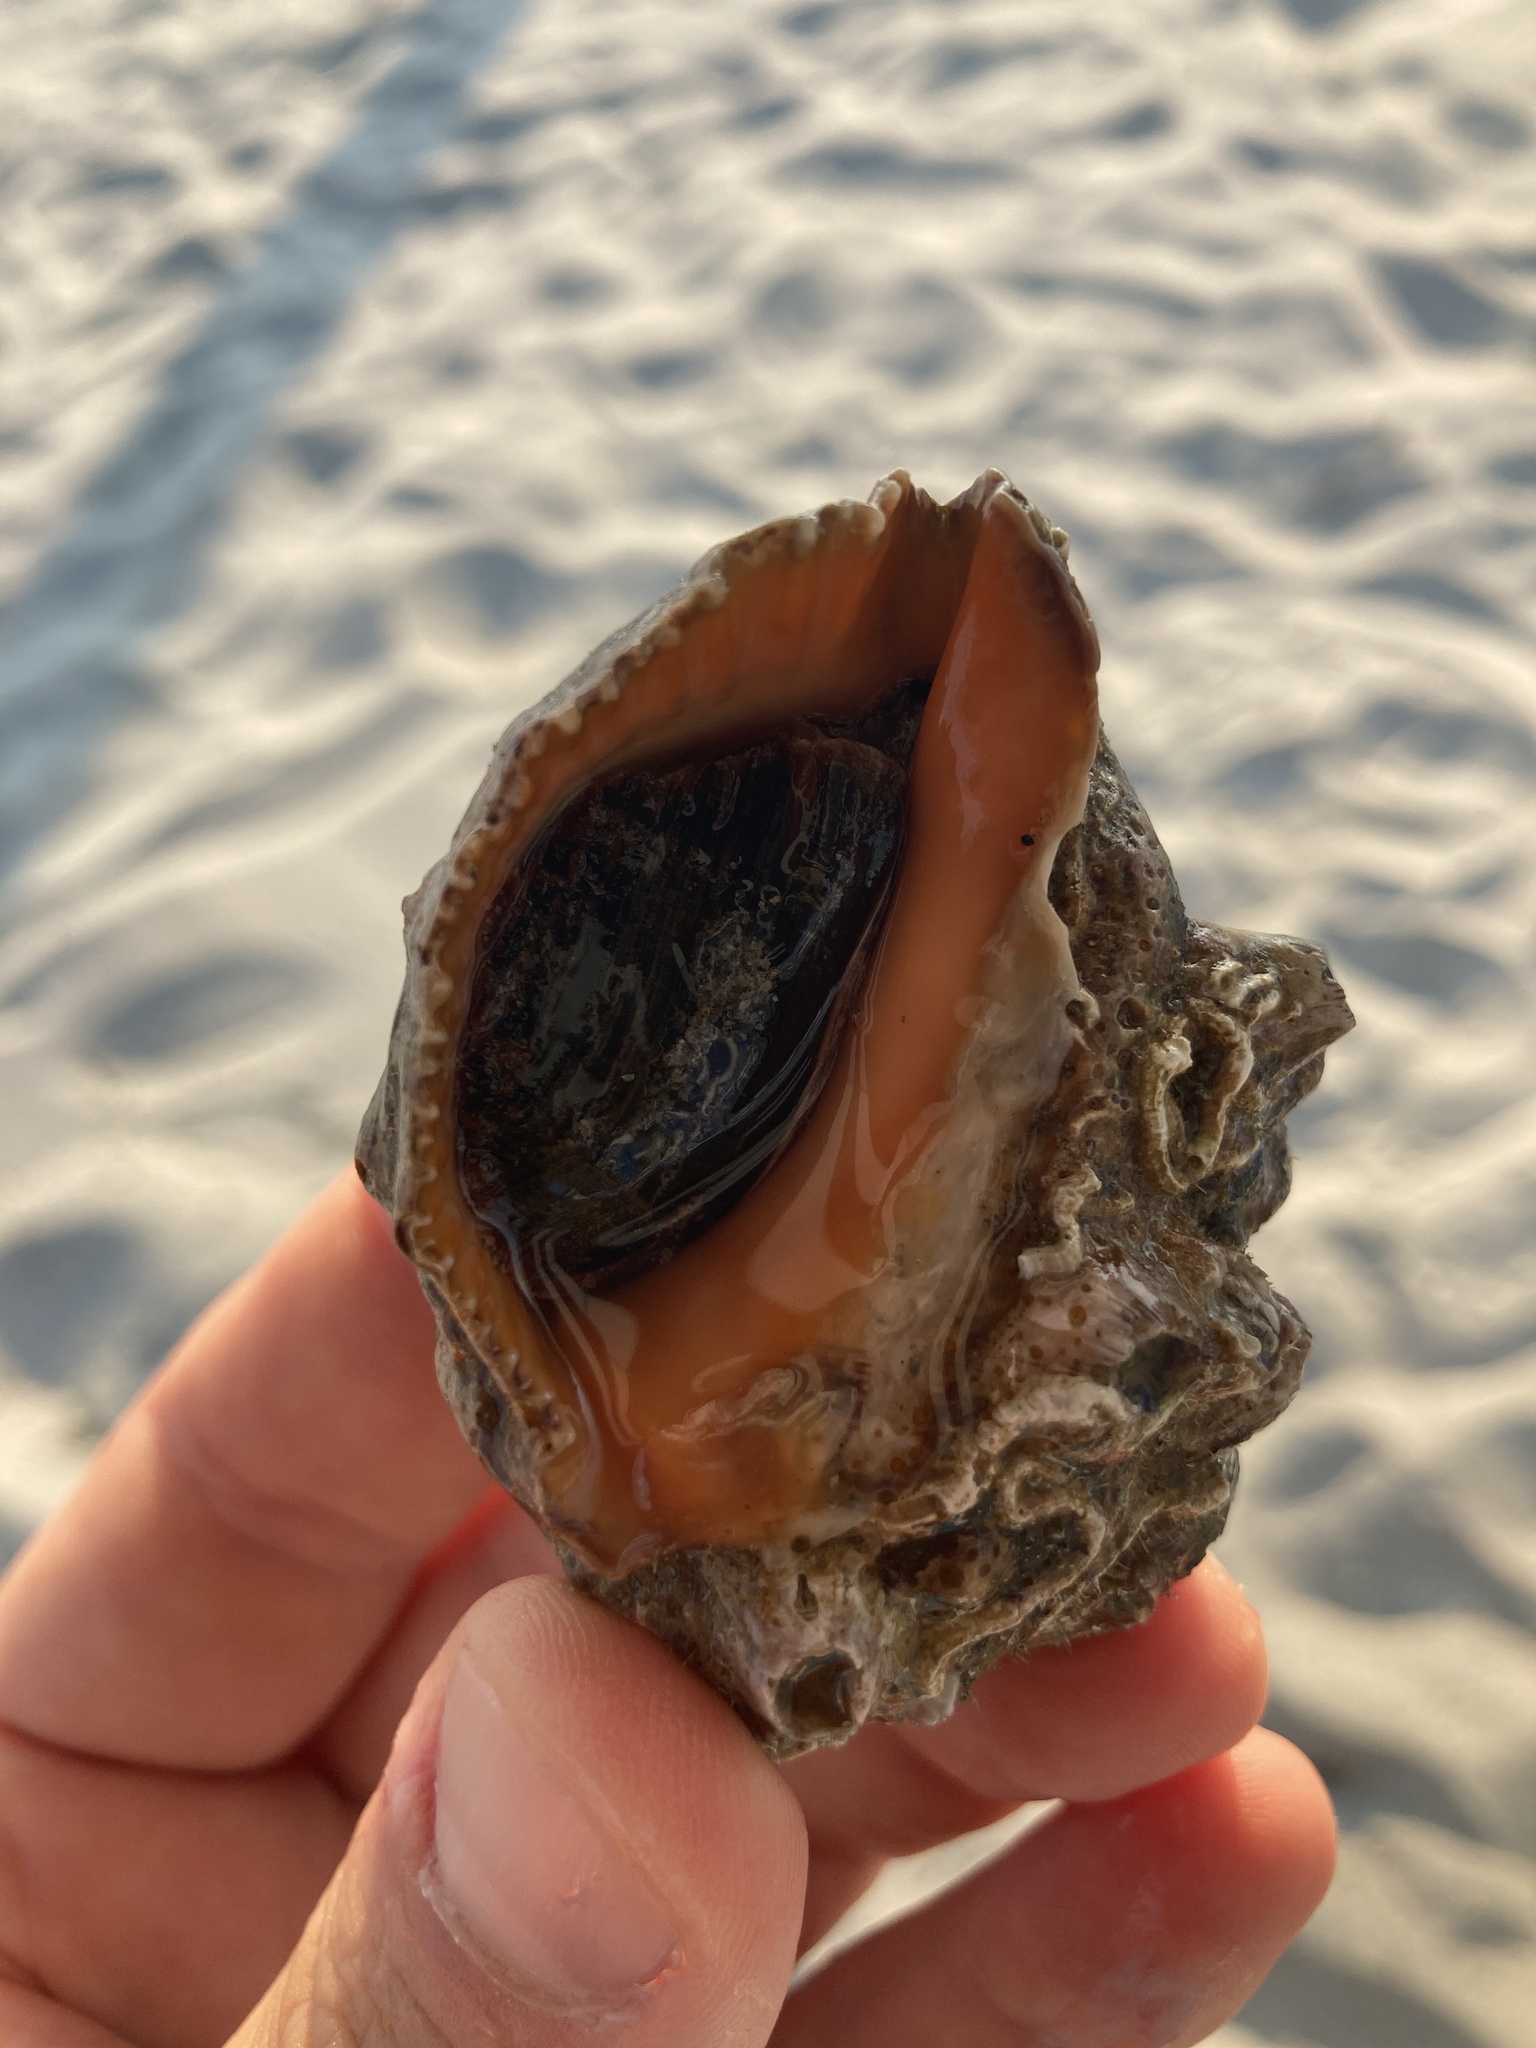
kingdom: Animalia
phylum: Mollusca
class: Gastropoda
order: Neogastropoda
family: Muricidae
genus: Stramonita
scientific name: Stramonita haemastoma
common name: Florida dog winkle
